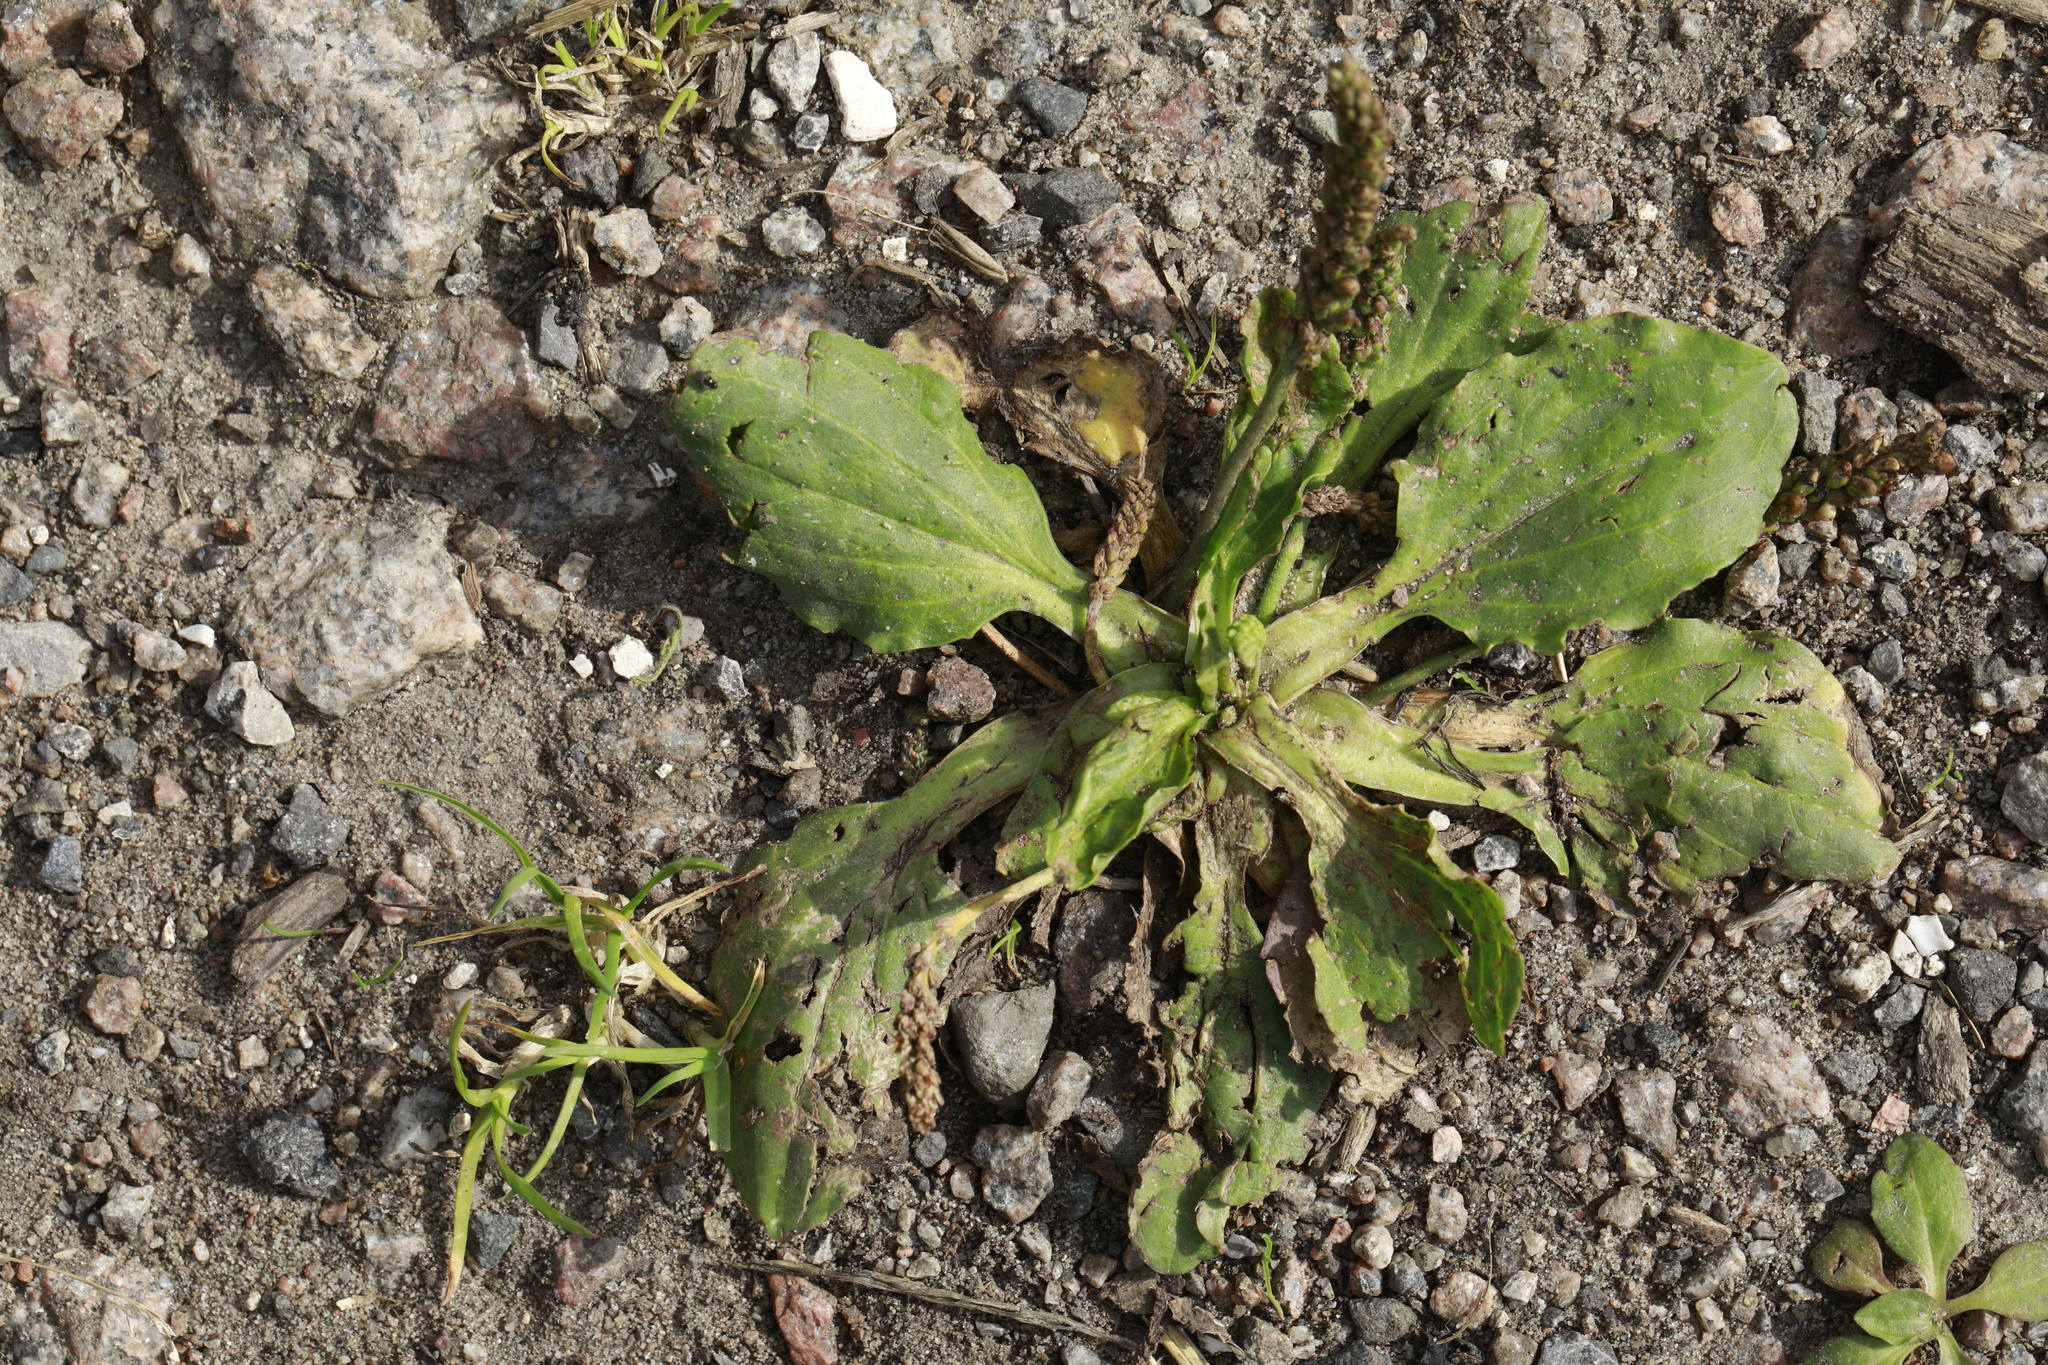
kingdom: Plantae
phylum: Tracheophyta
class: Magnoliopsida
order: Lamiales
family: Plantaginaceae
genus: Plantago
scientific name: Plantago major
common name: Common plantain
